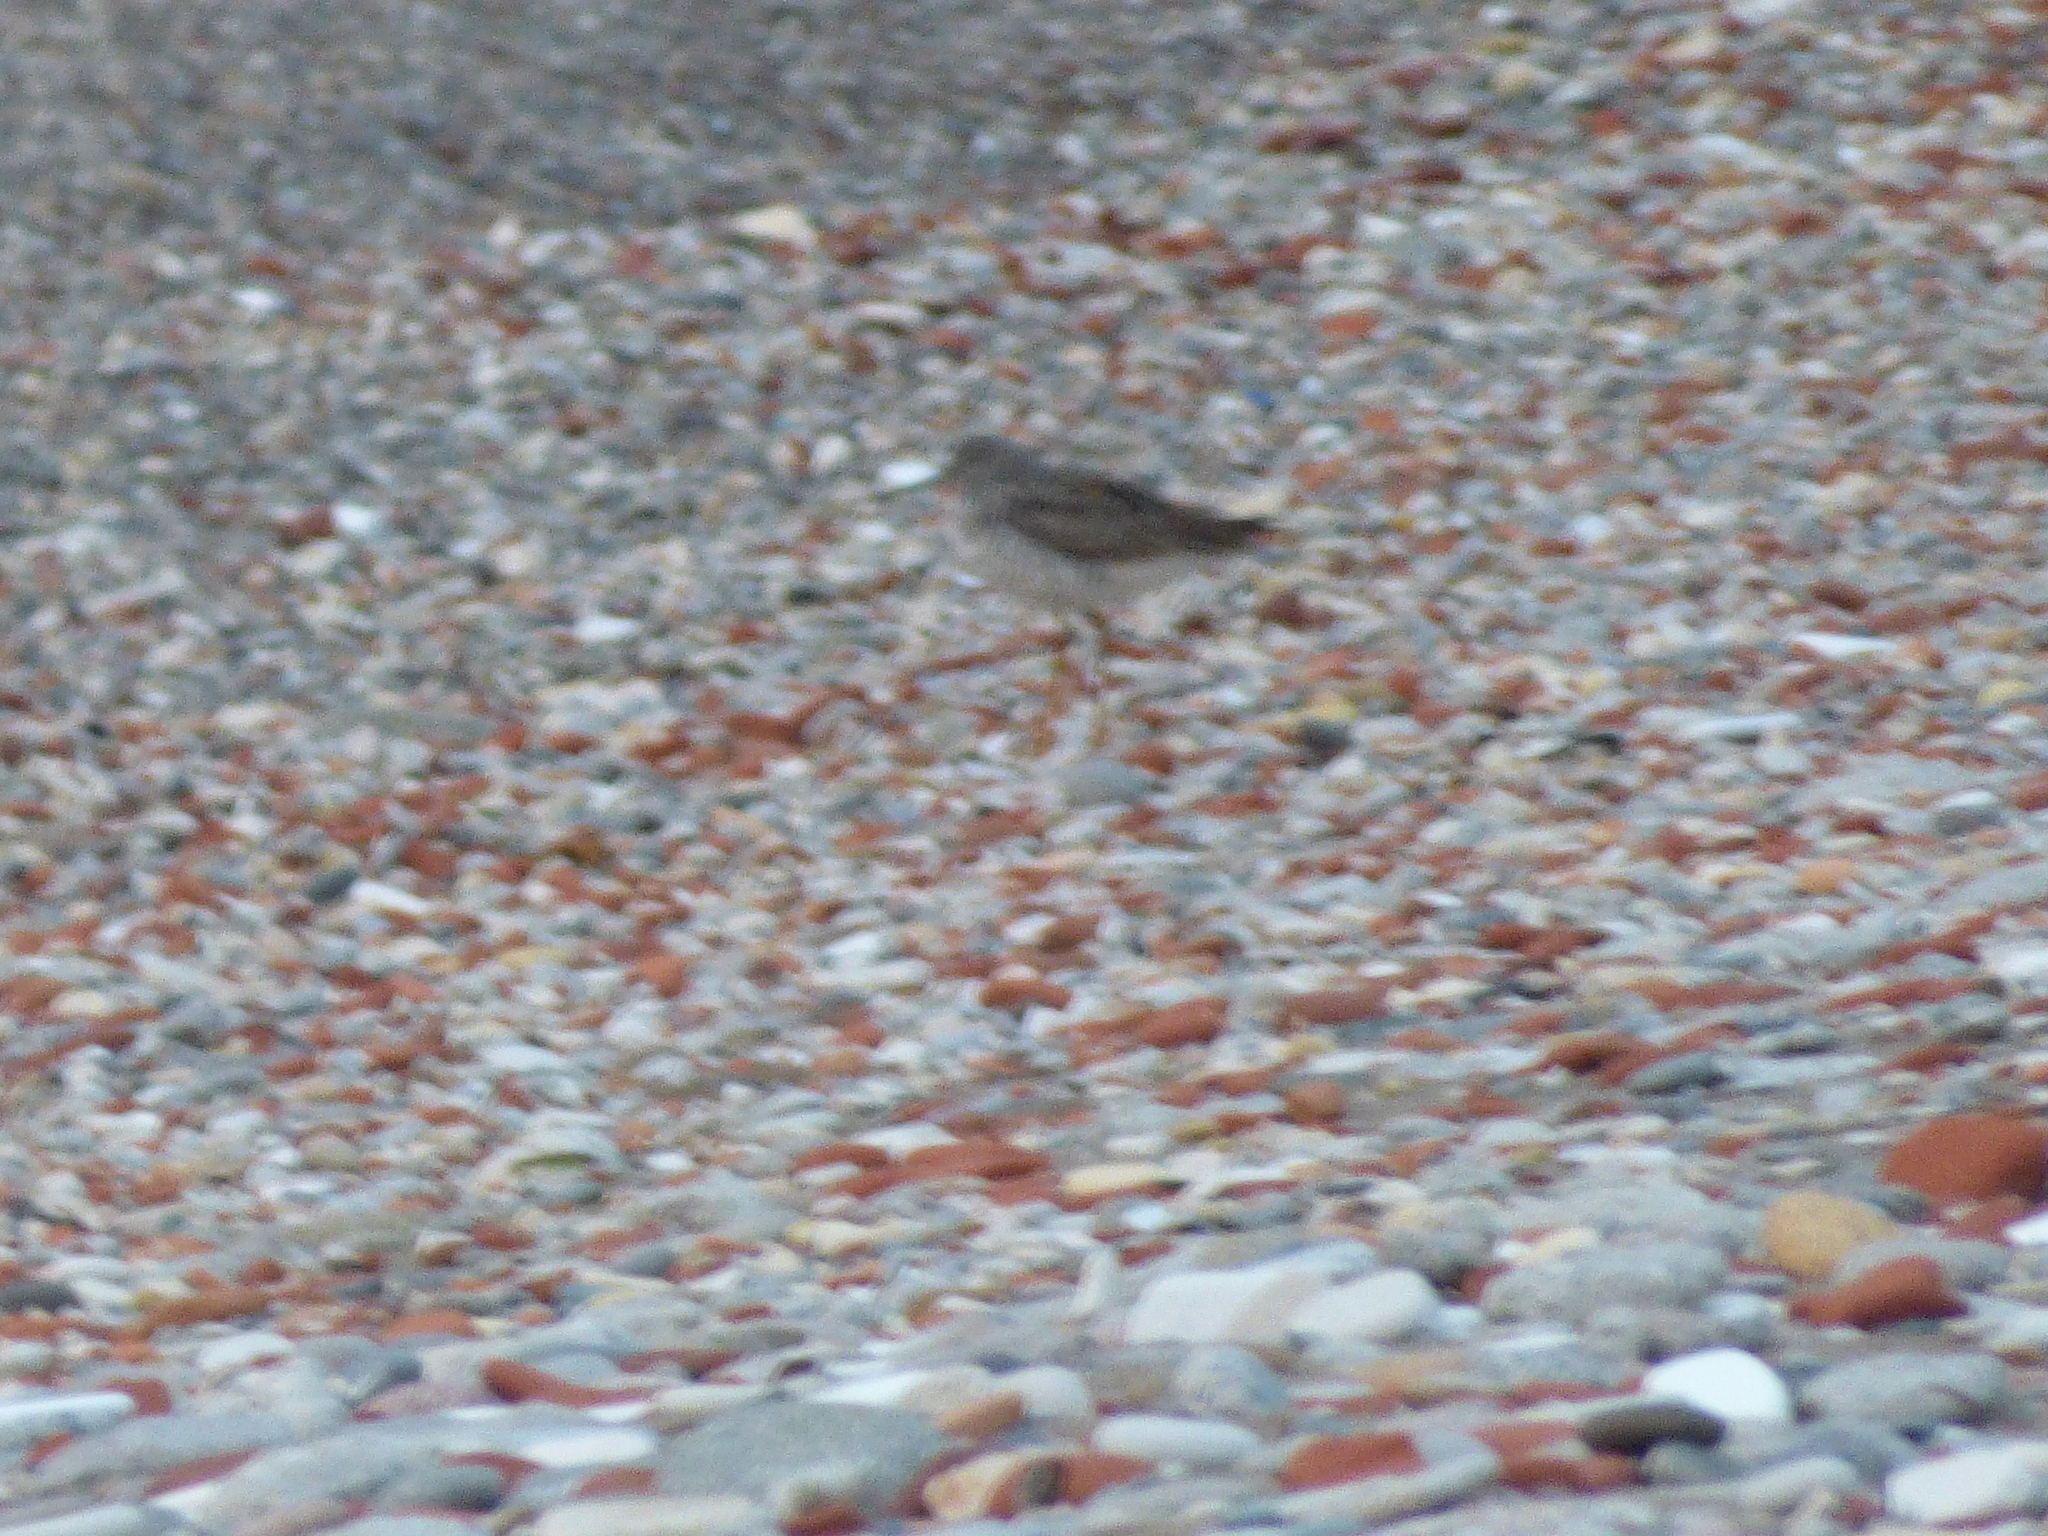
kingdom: Animalia
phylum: Chordata
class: Aves
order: Charadriiformes
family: Scolopacidae
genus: Tringa
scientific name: Tringa flavipes
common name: Lesser yellowlegs
